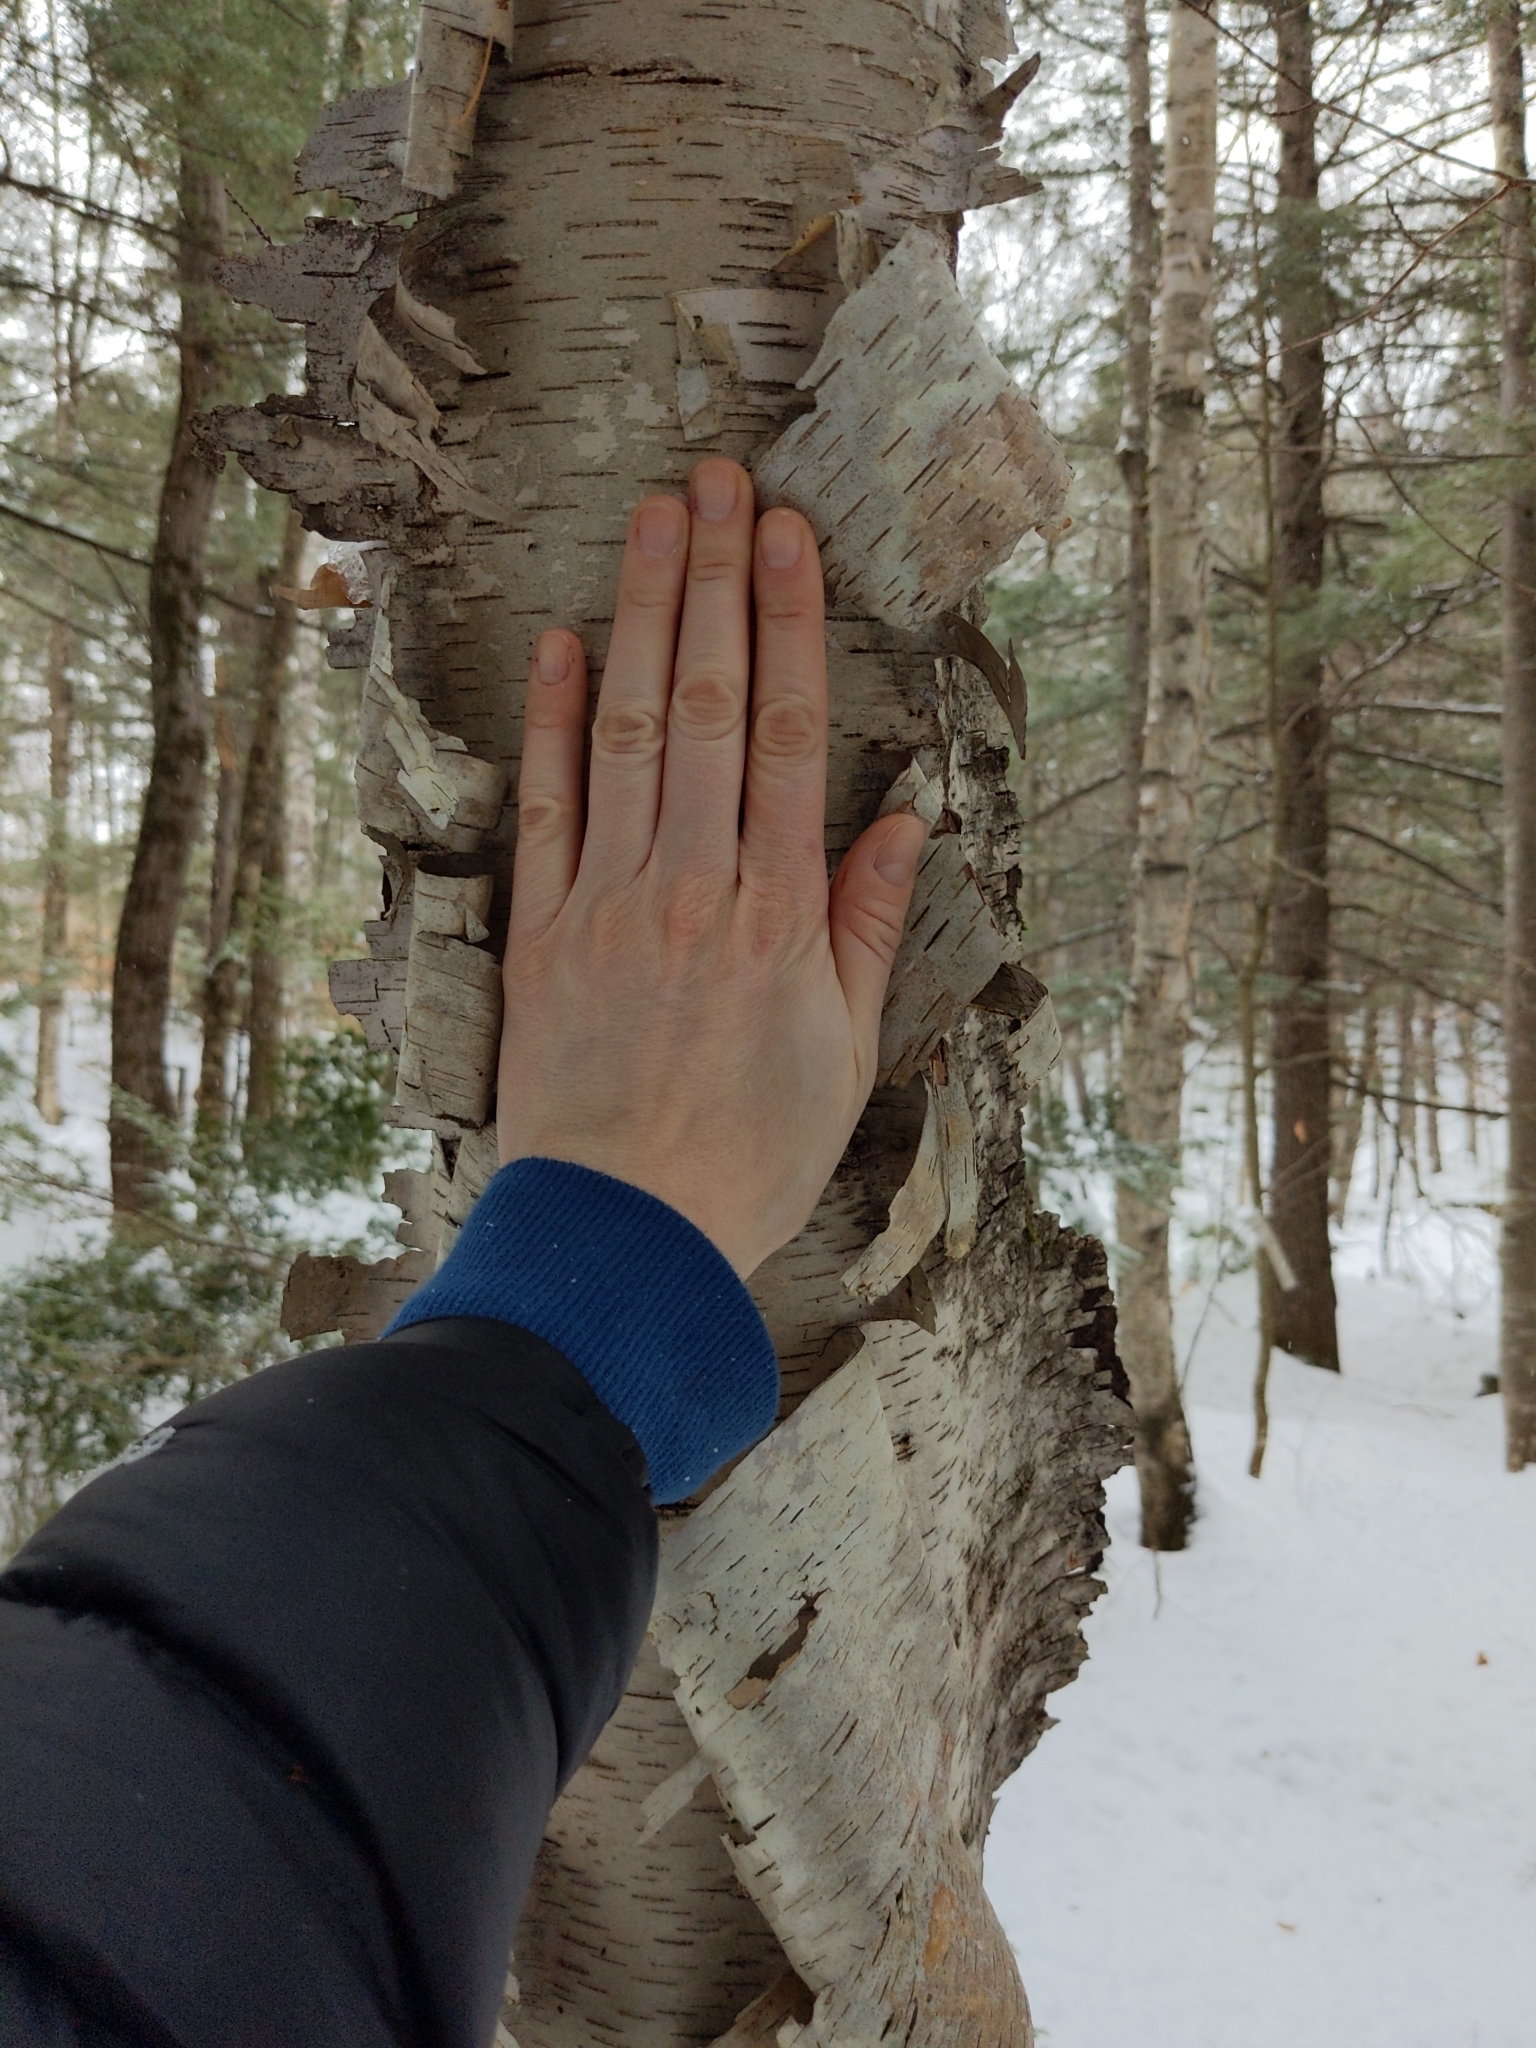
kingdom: Plantae
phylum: Tracheophyta
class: Magnoliopsida
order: Fagales
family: Betulaceae
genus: Betula
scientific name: Betula papyrifera
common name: Paper birch
